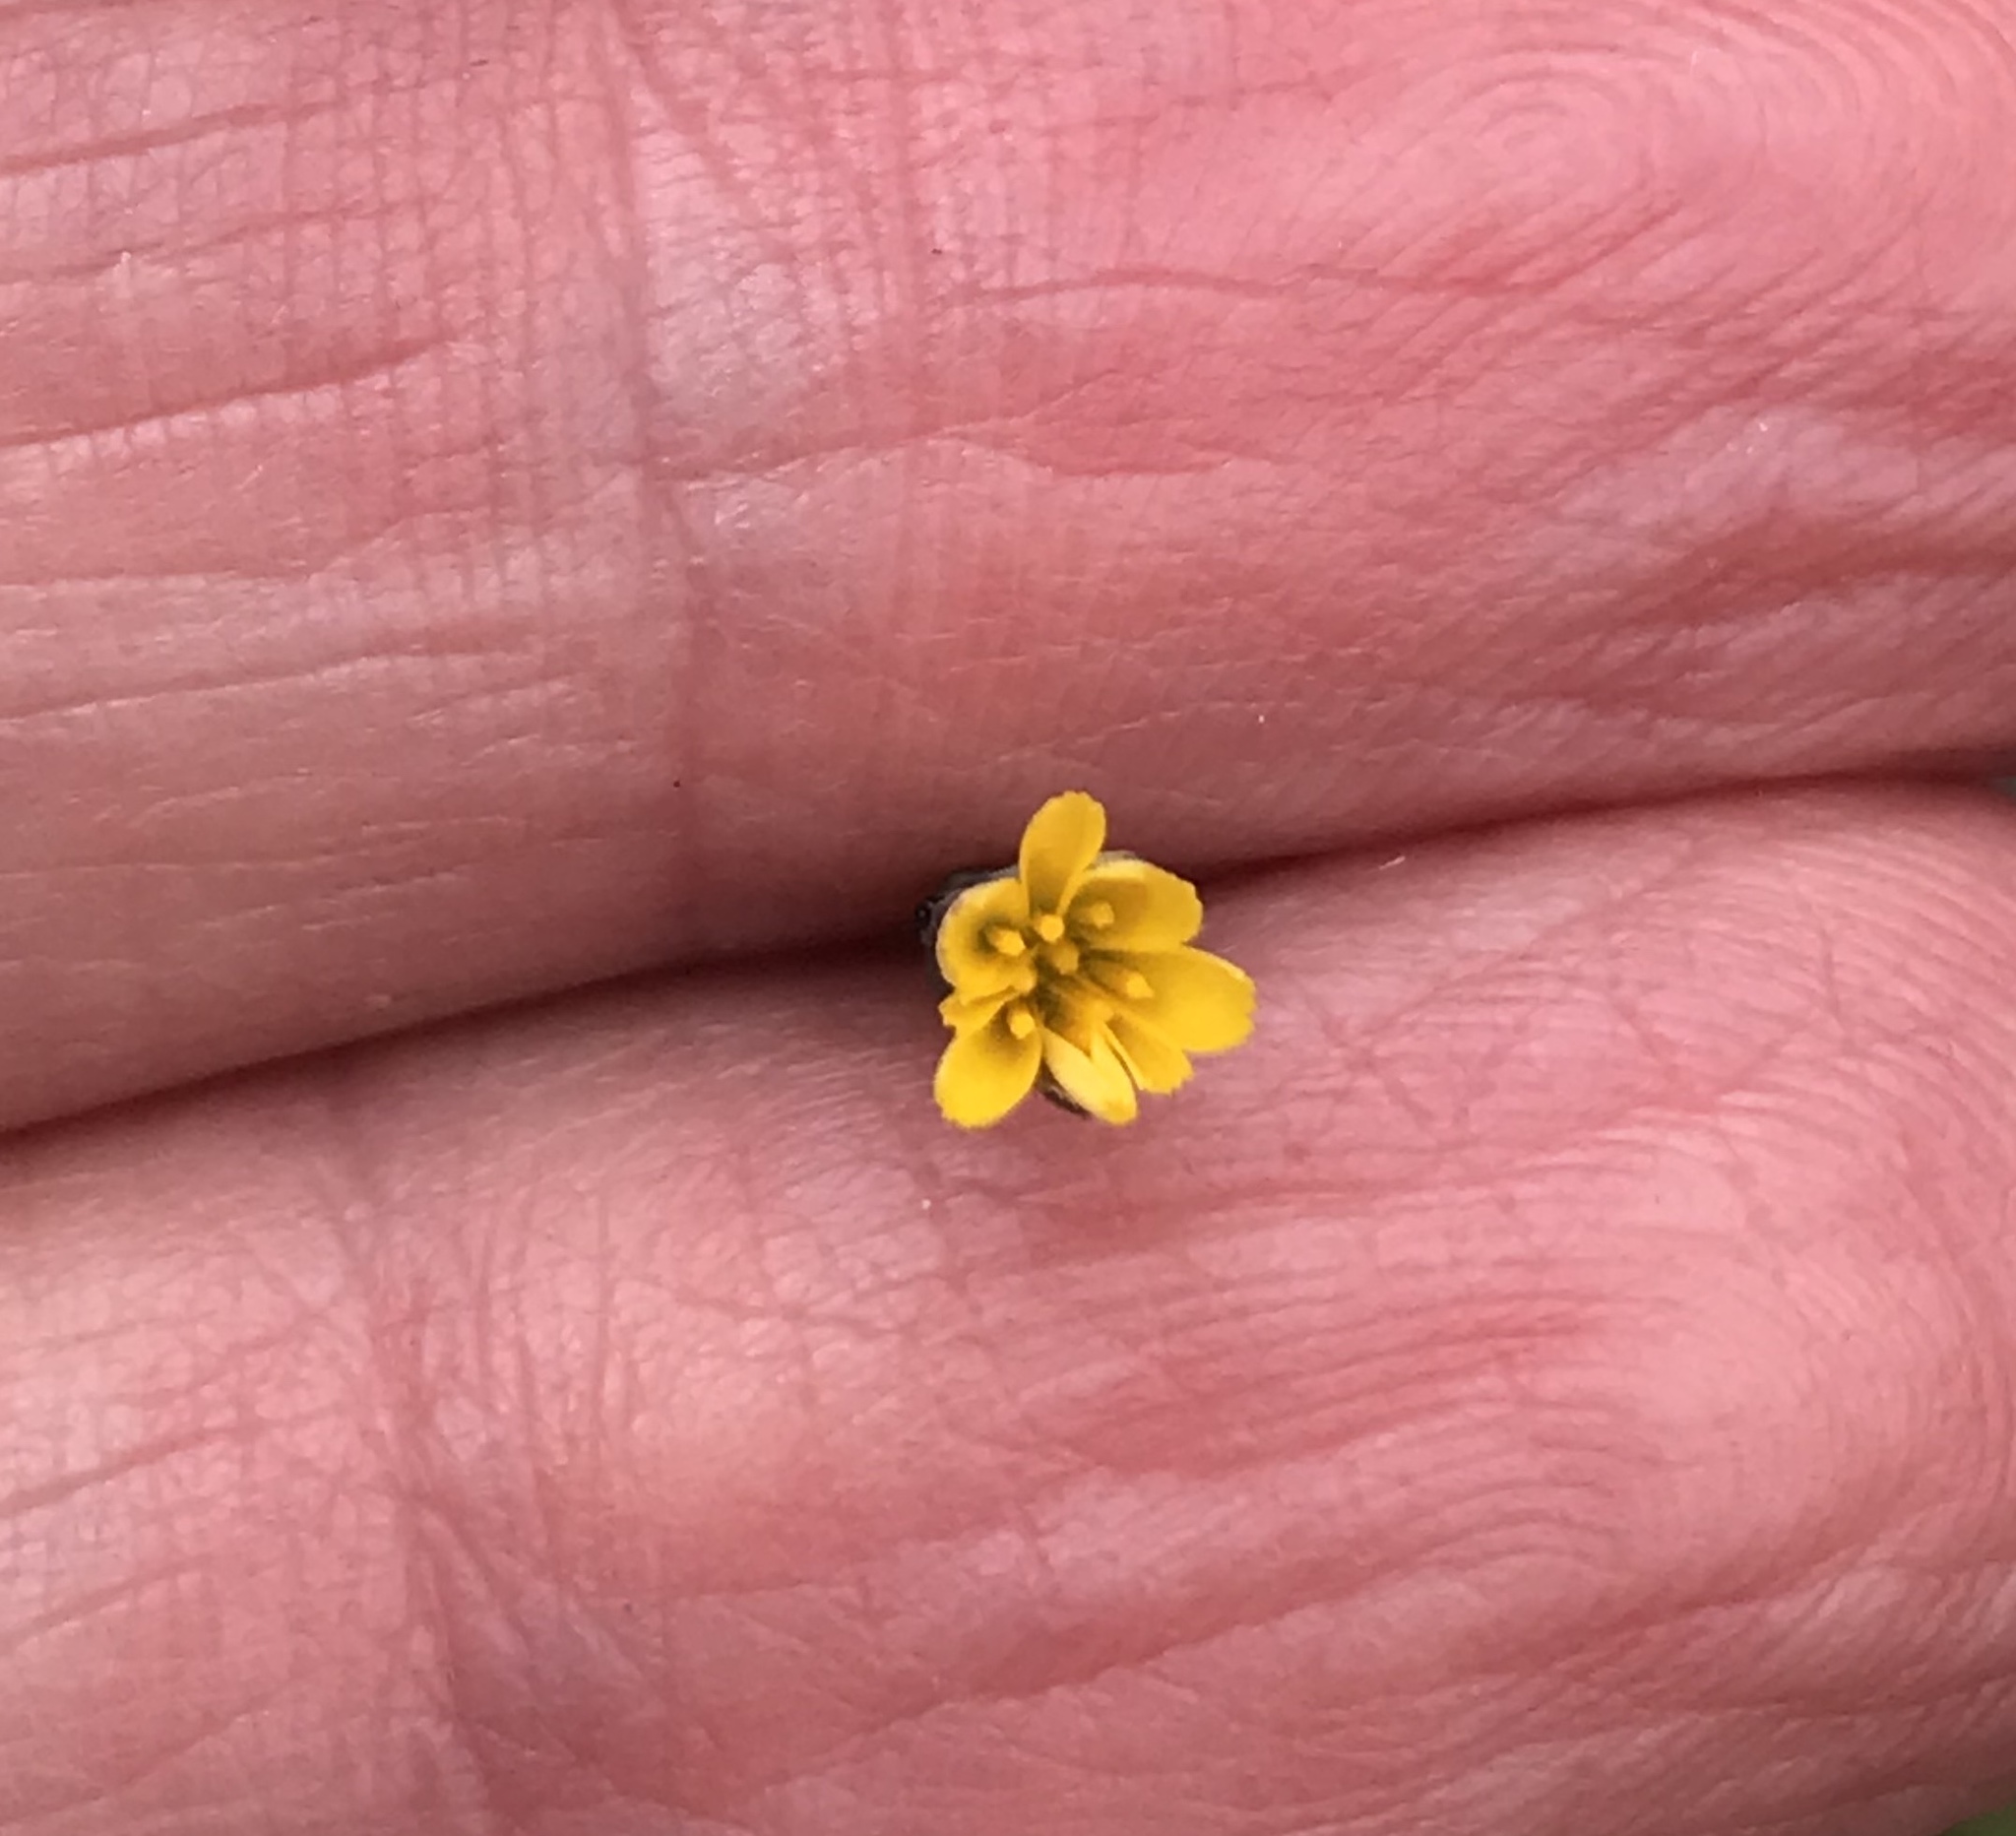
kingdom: Plantae
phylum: Tracheophyta
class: Magnoliopsida
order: Asterales
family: Asteraceae
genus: Hypochaeris
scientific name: Hypochaeris glabra
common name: Smooth catsear
